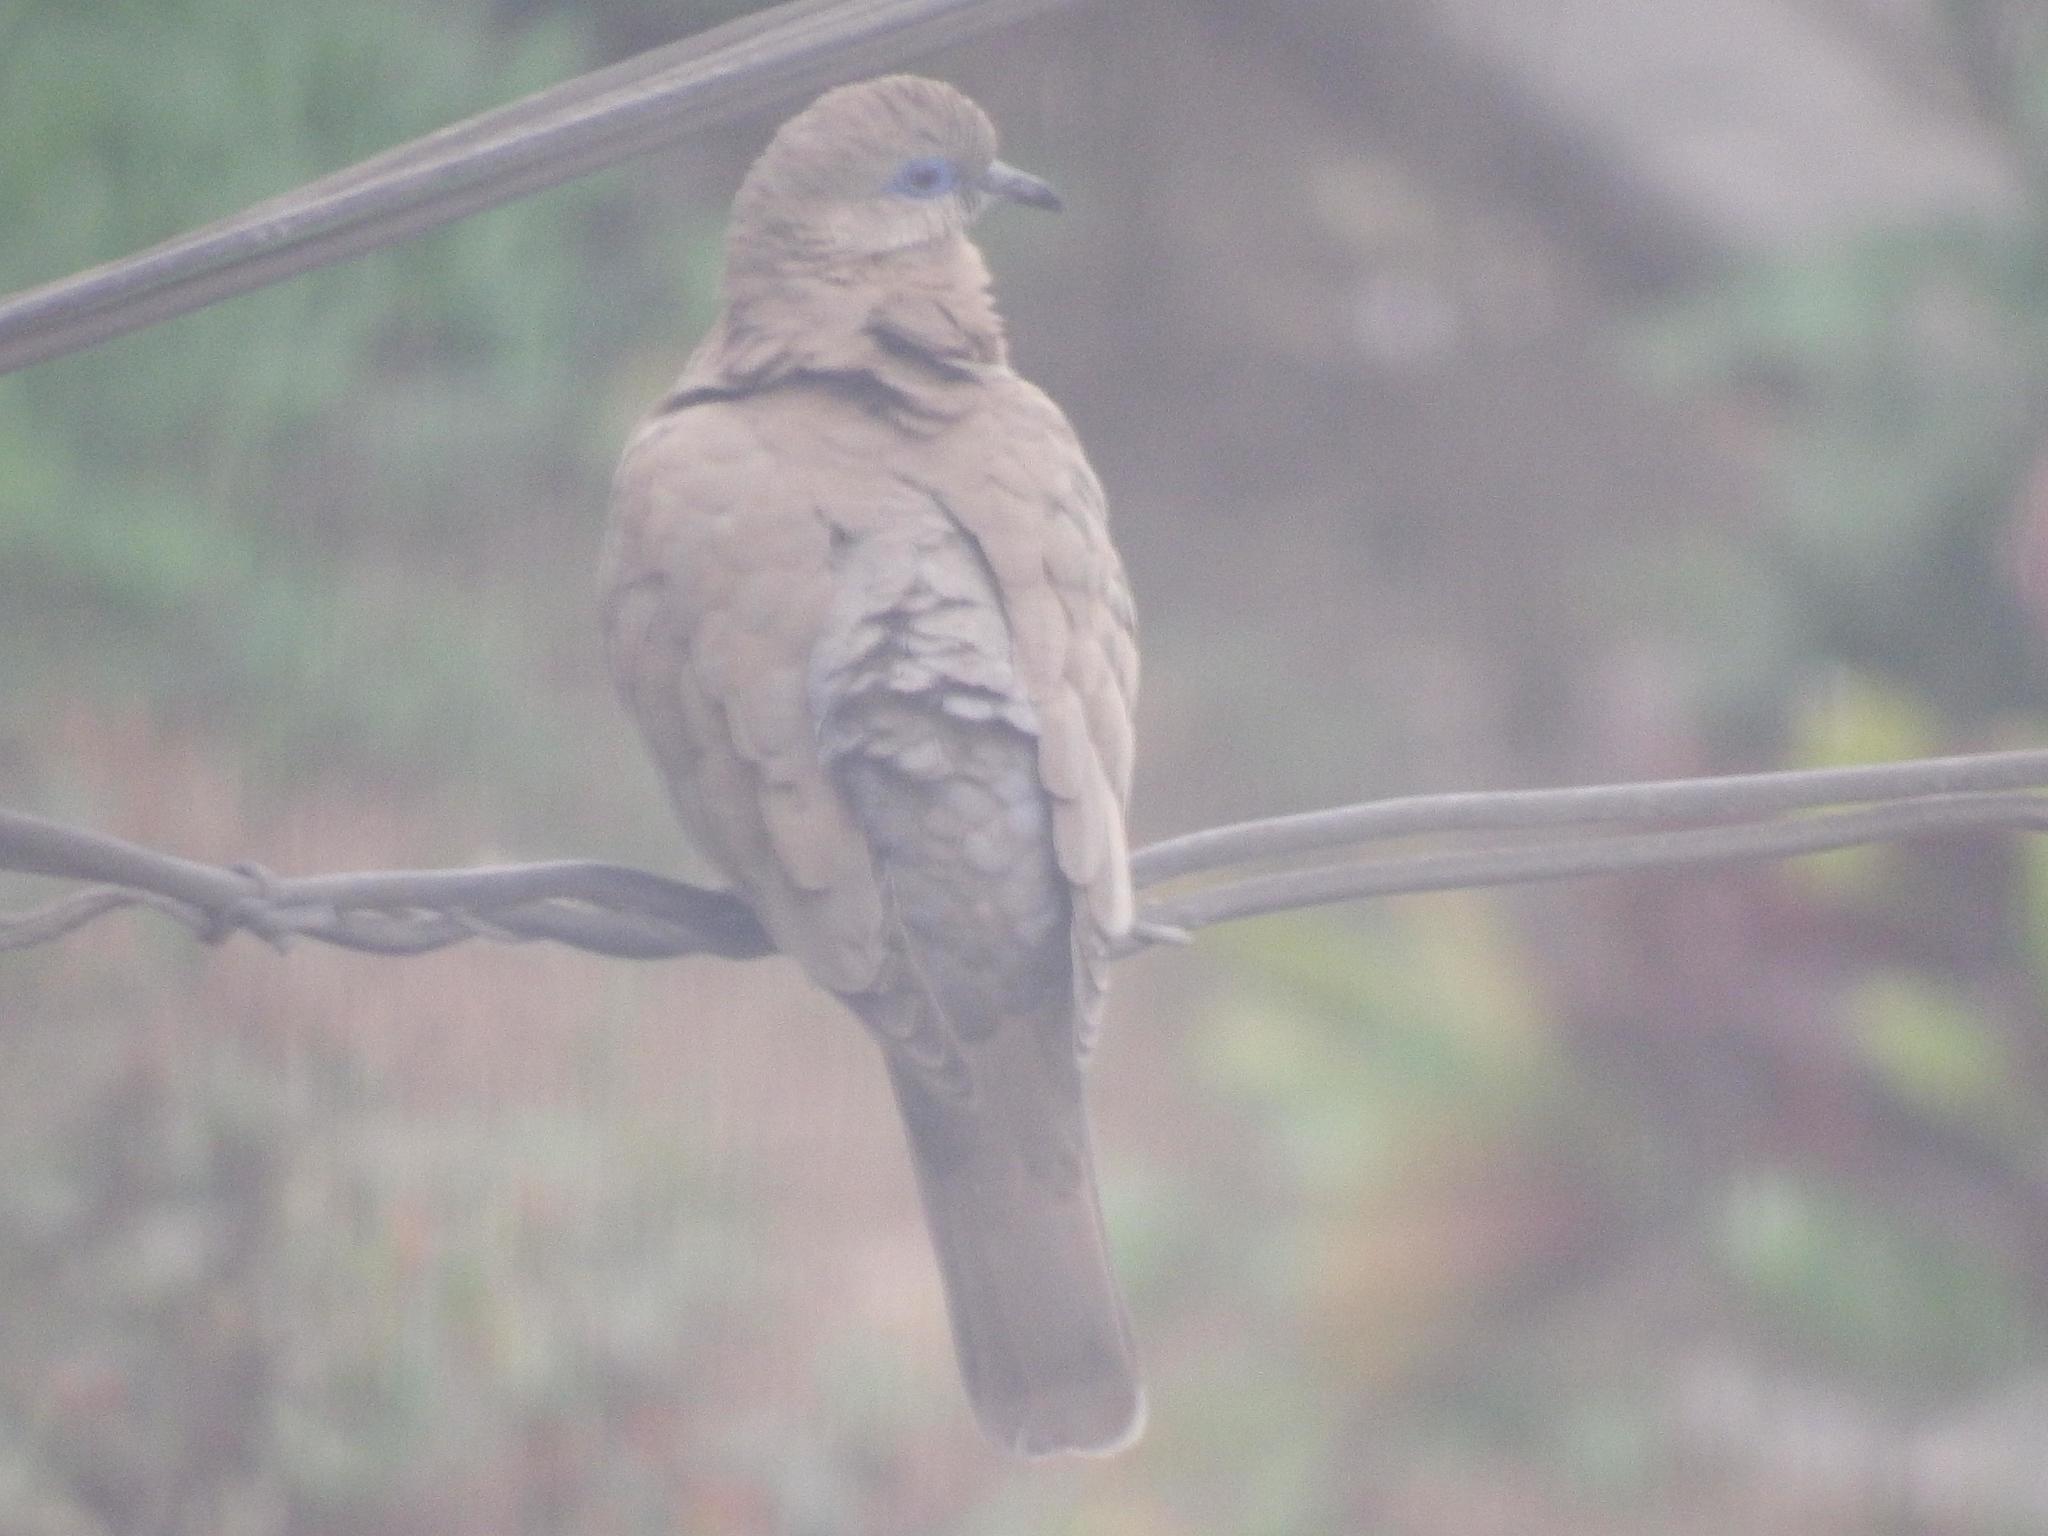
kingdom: Animalia
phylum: Chordata
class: Aves
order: Columbiformes
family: Columbidae
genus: Zenaida
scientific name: Zenaida meloda
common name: West peruvian dove
